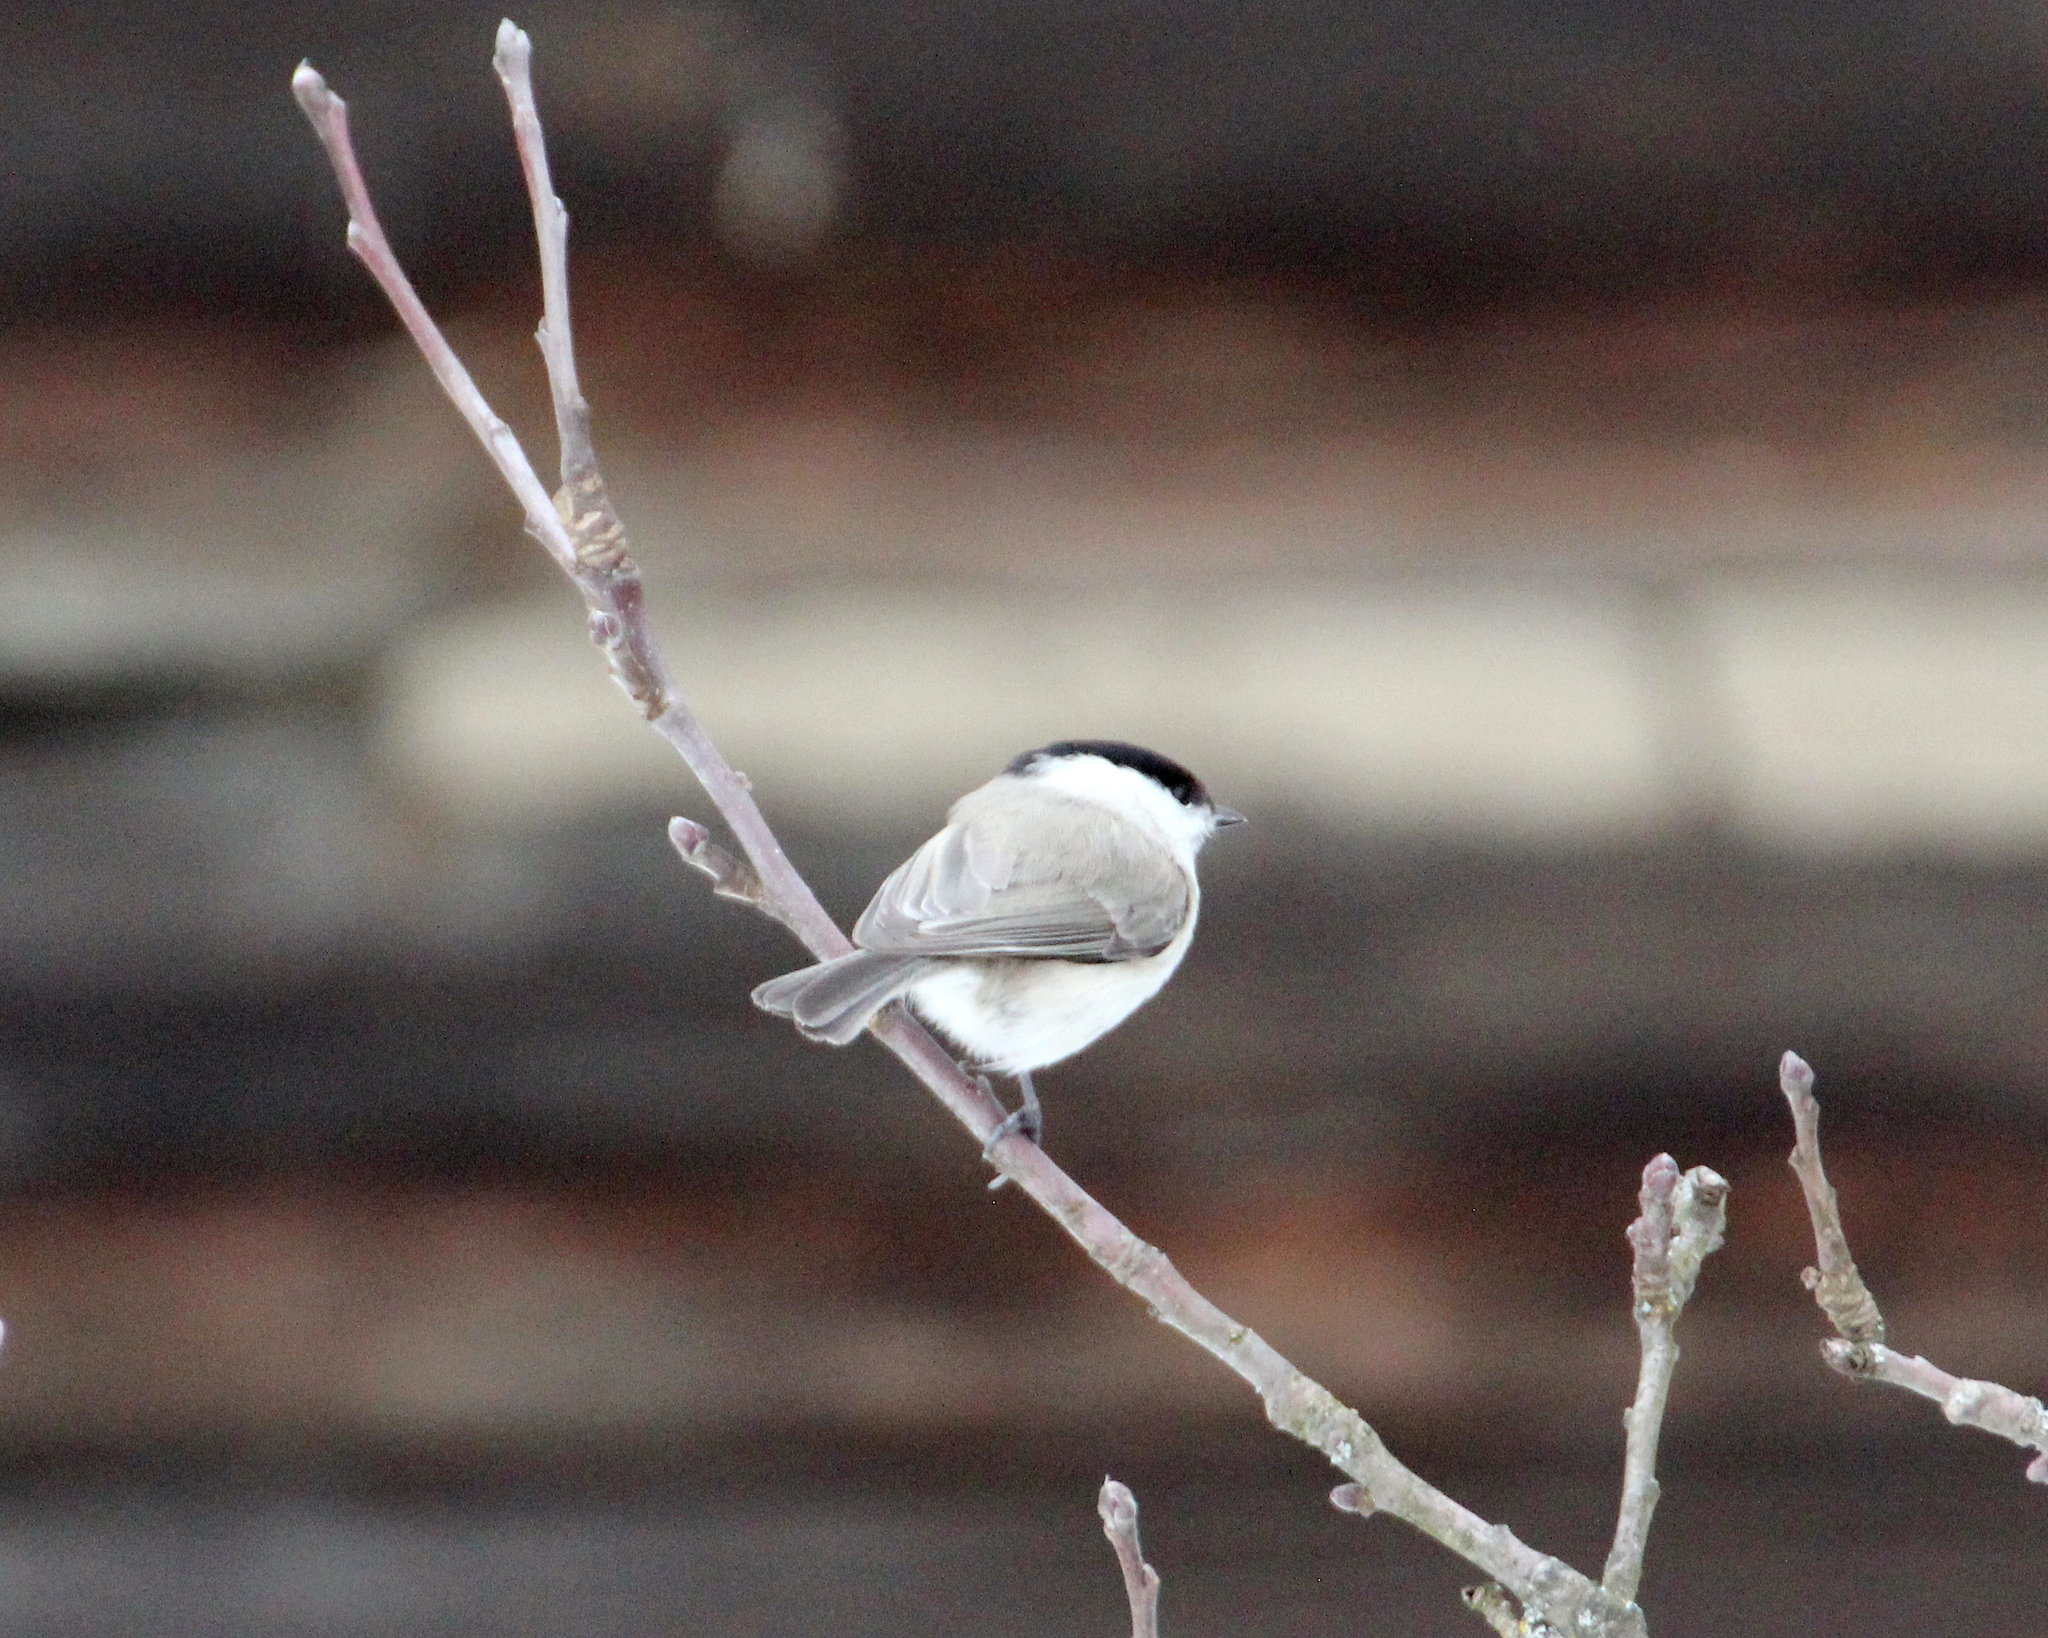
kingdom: Animalia
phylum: Chordata
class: Aves
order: Passeriformes
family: Paridae
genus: Poecile
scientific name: Poecile palustris
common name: Marsh tit
